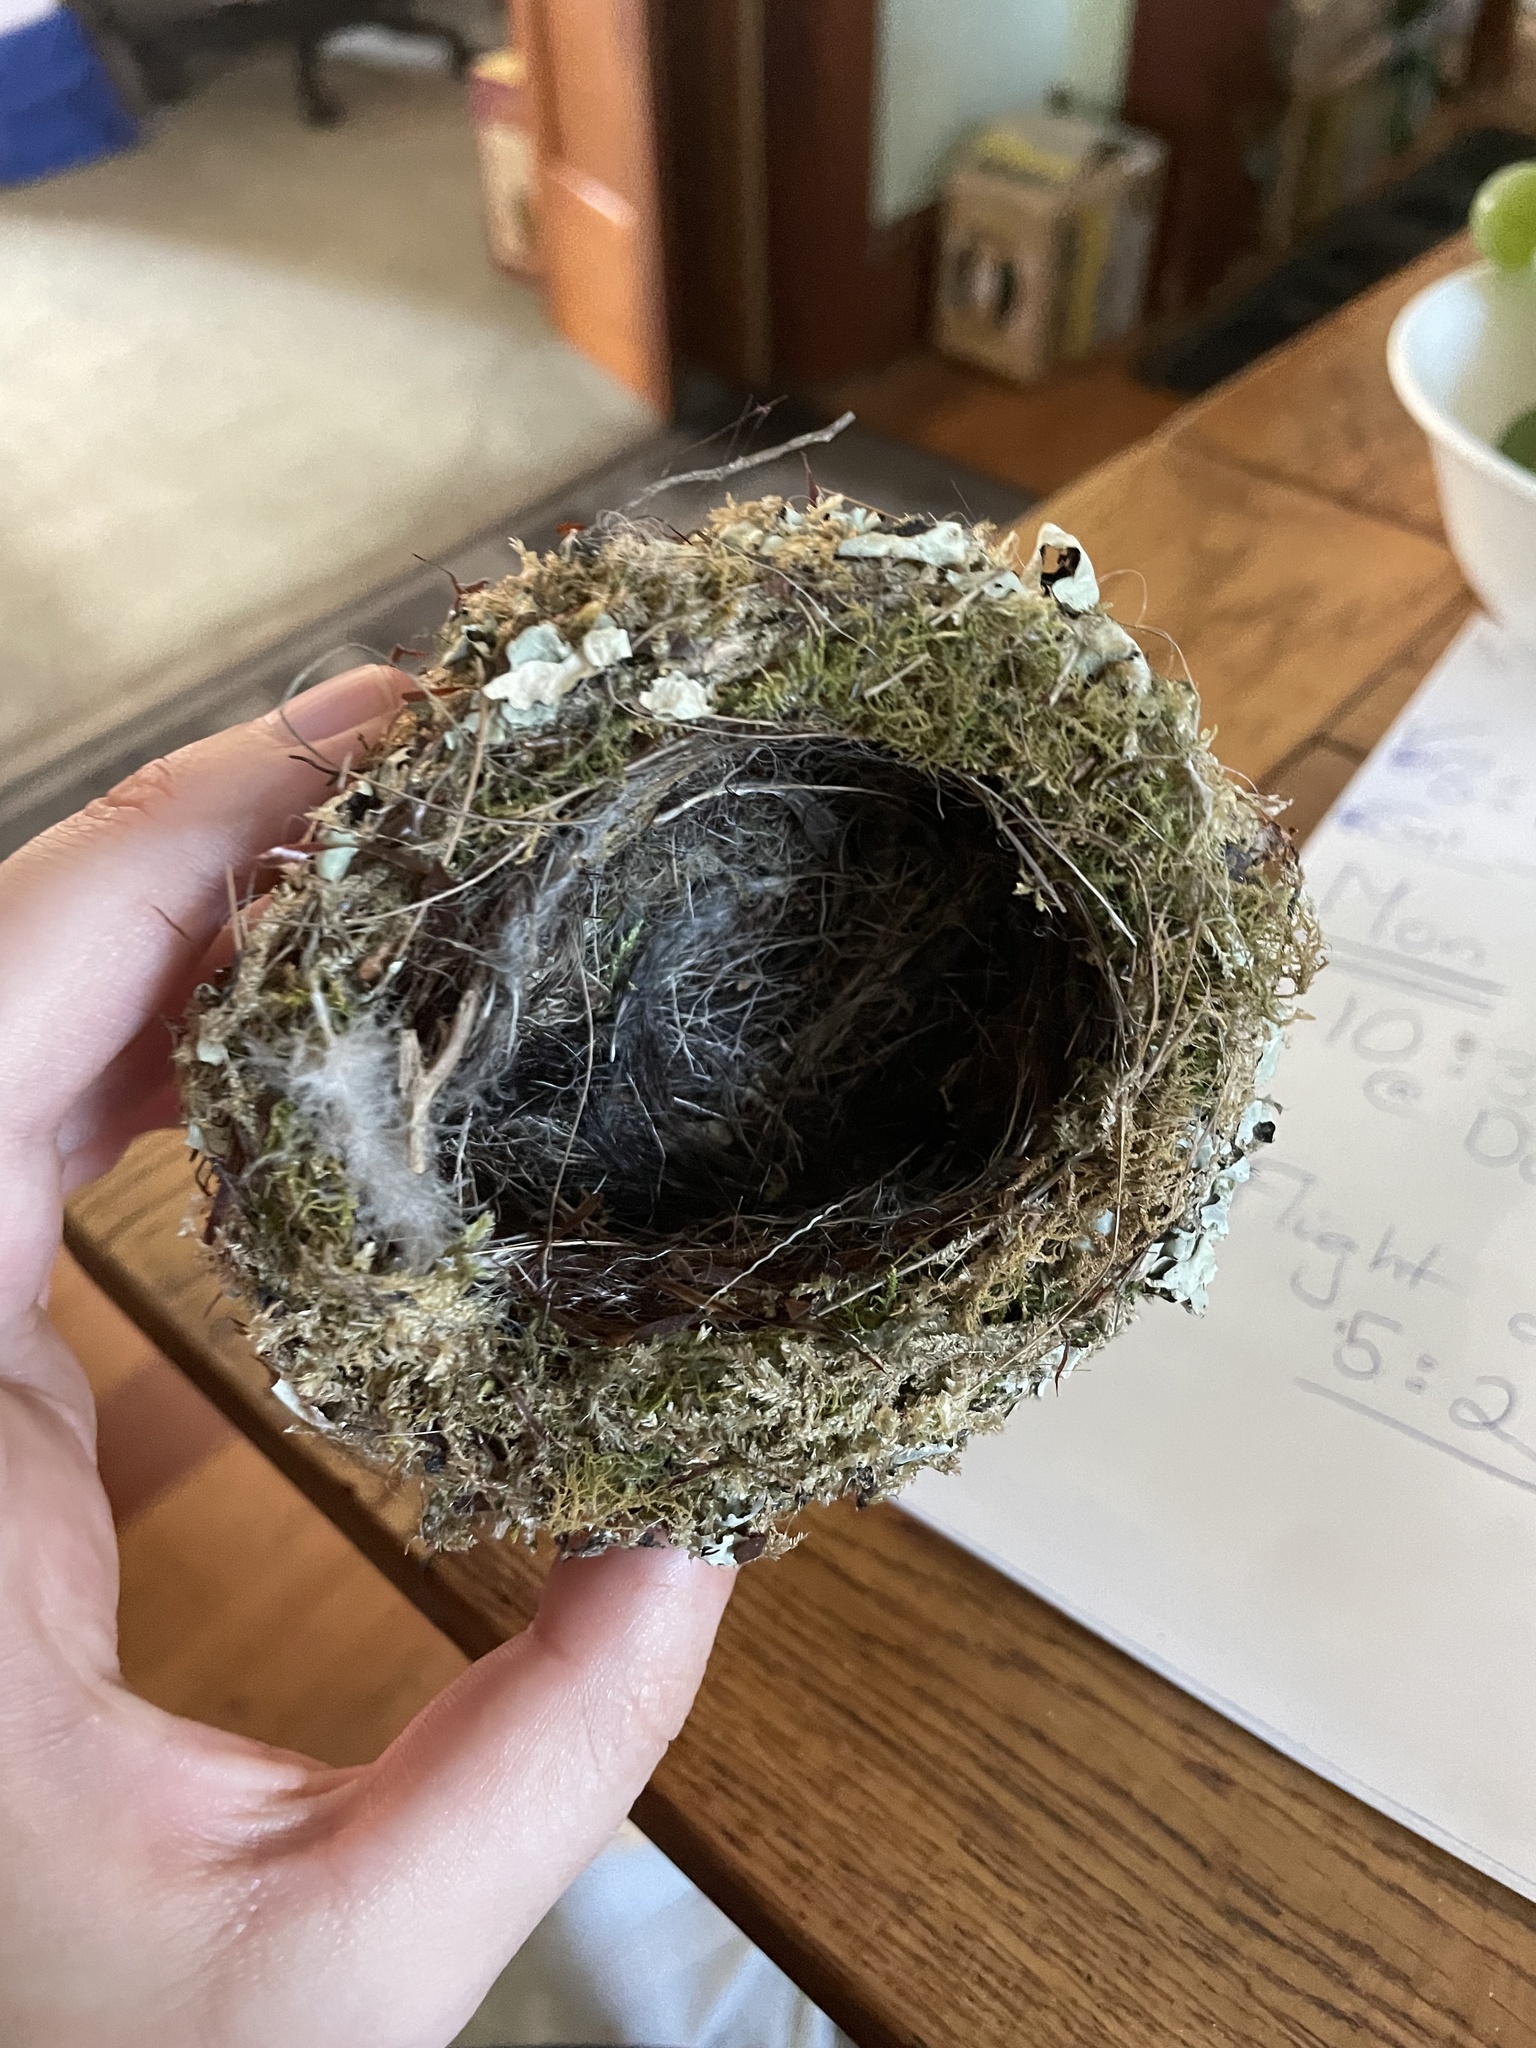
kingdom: Animalia
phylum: Chordata
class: Aves
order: Passeriformes
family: Fringillidae
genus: Fringilla
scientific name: Fringilla coelebs
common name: Common chaffinch
